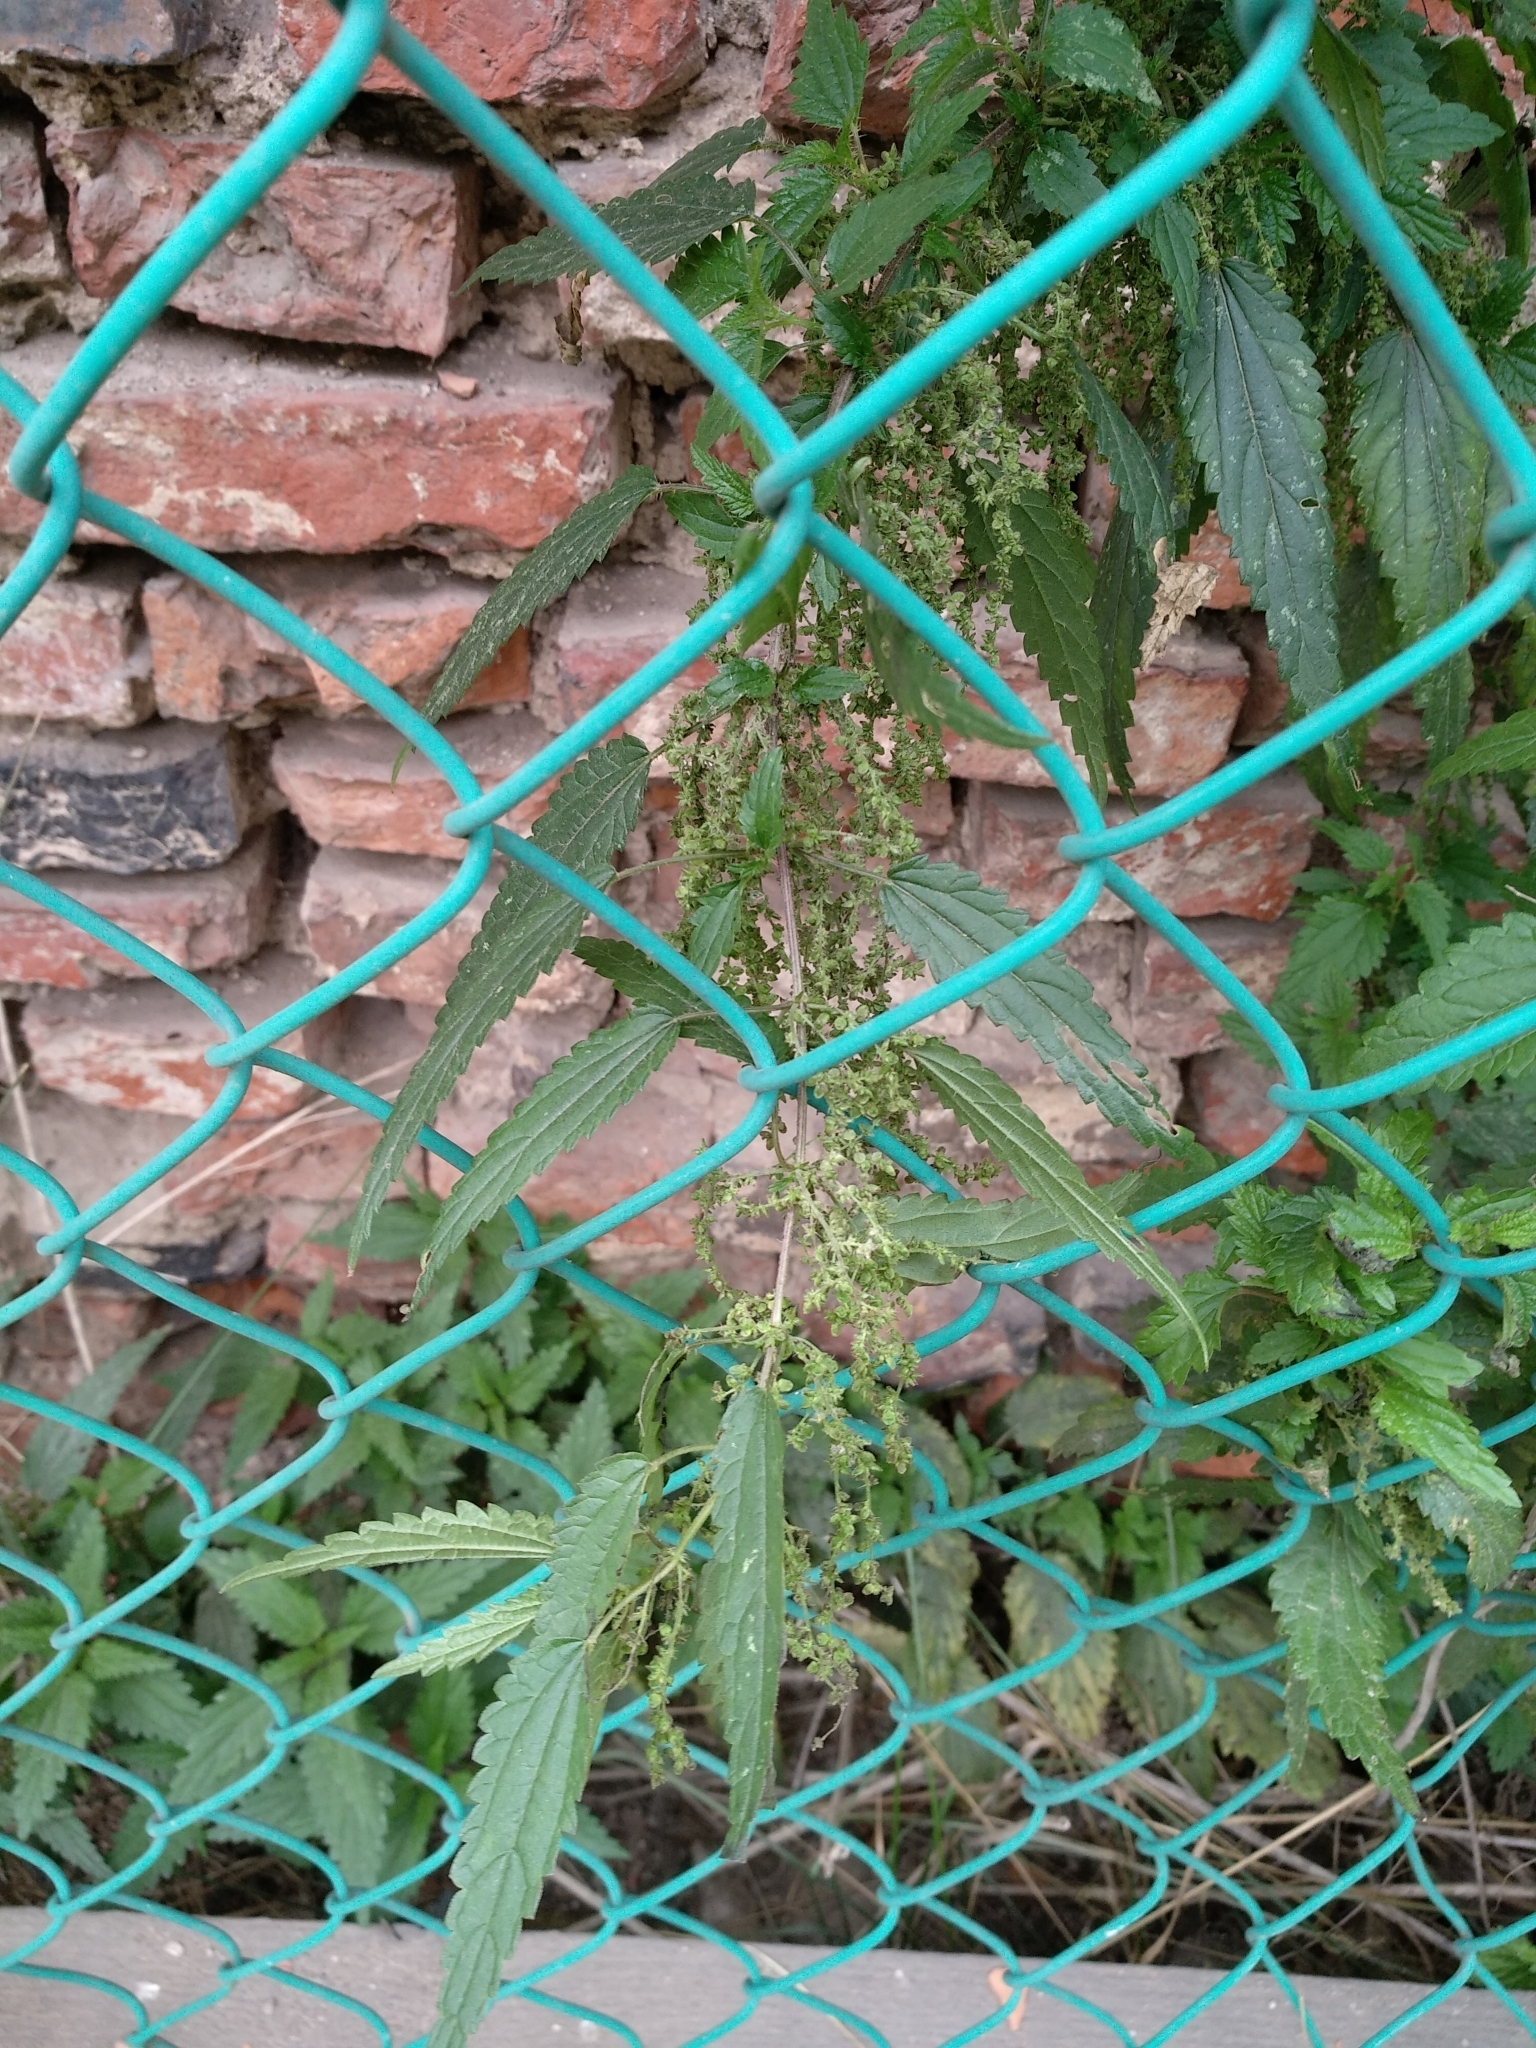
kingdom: Plantae
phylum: Tracheophyta
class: Magnoliopsida
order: Rosales
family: Urticaceae
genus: Urtica
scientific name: Urtica dioica
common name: Common nettle
